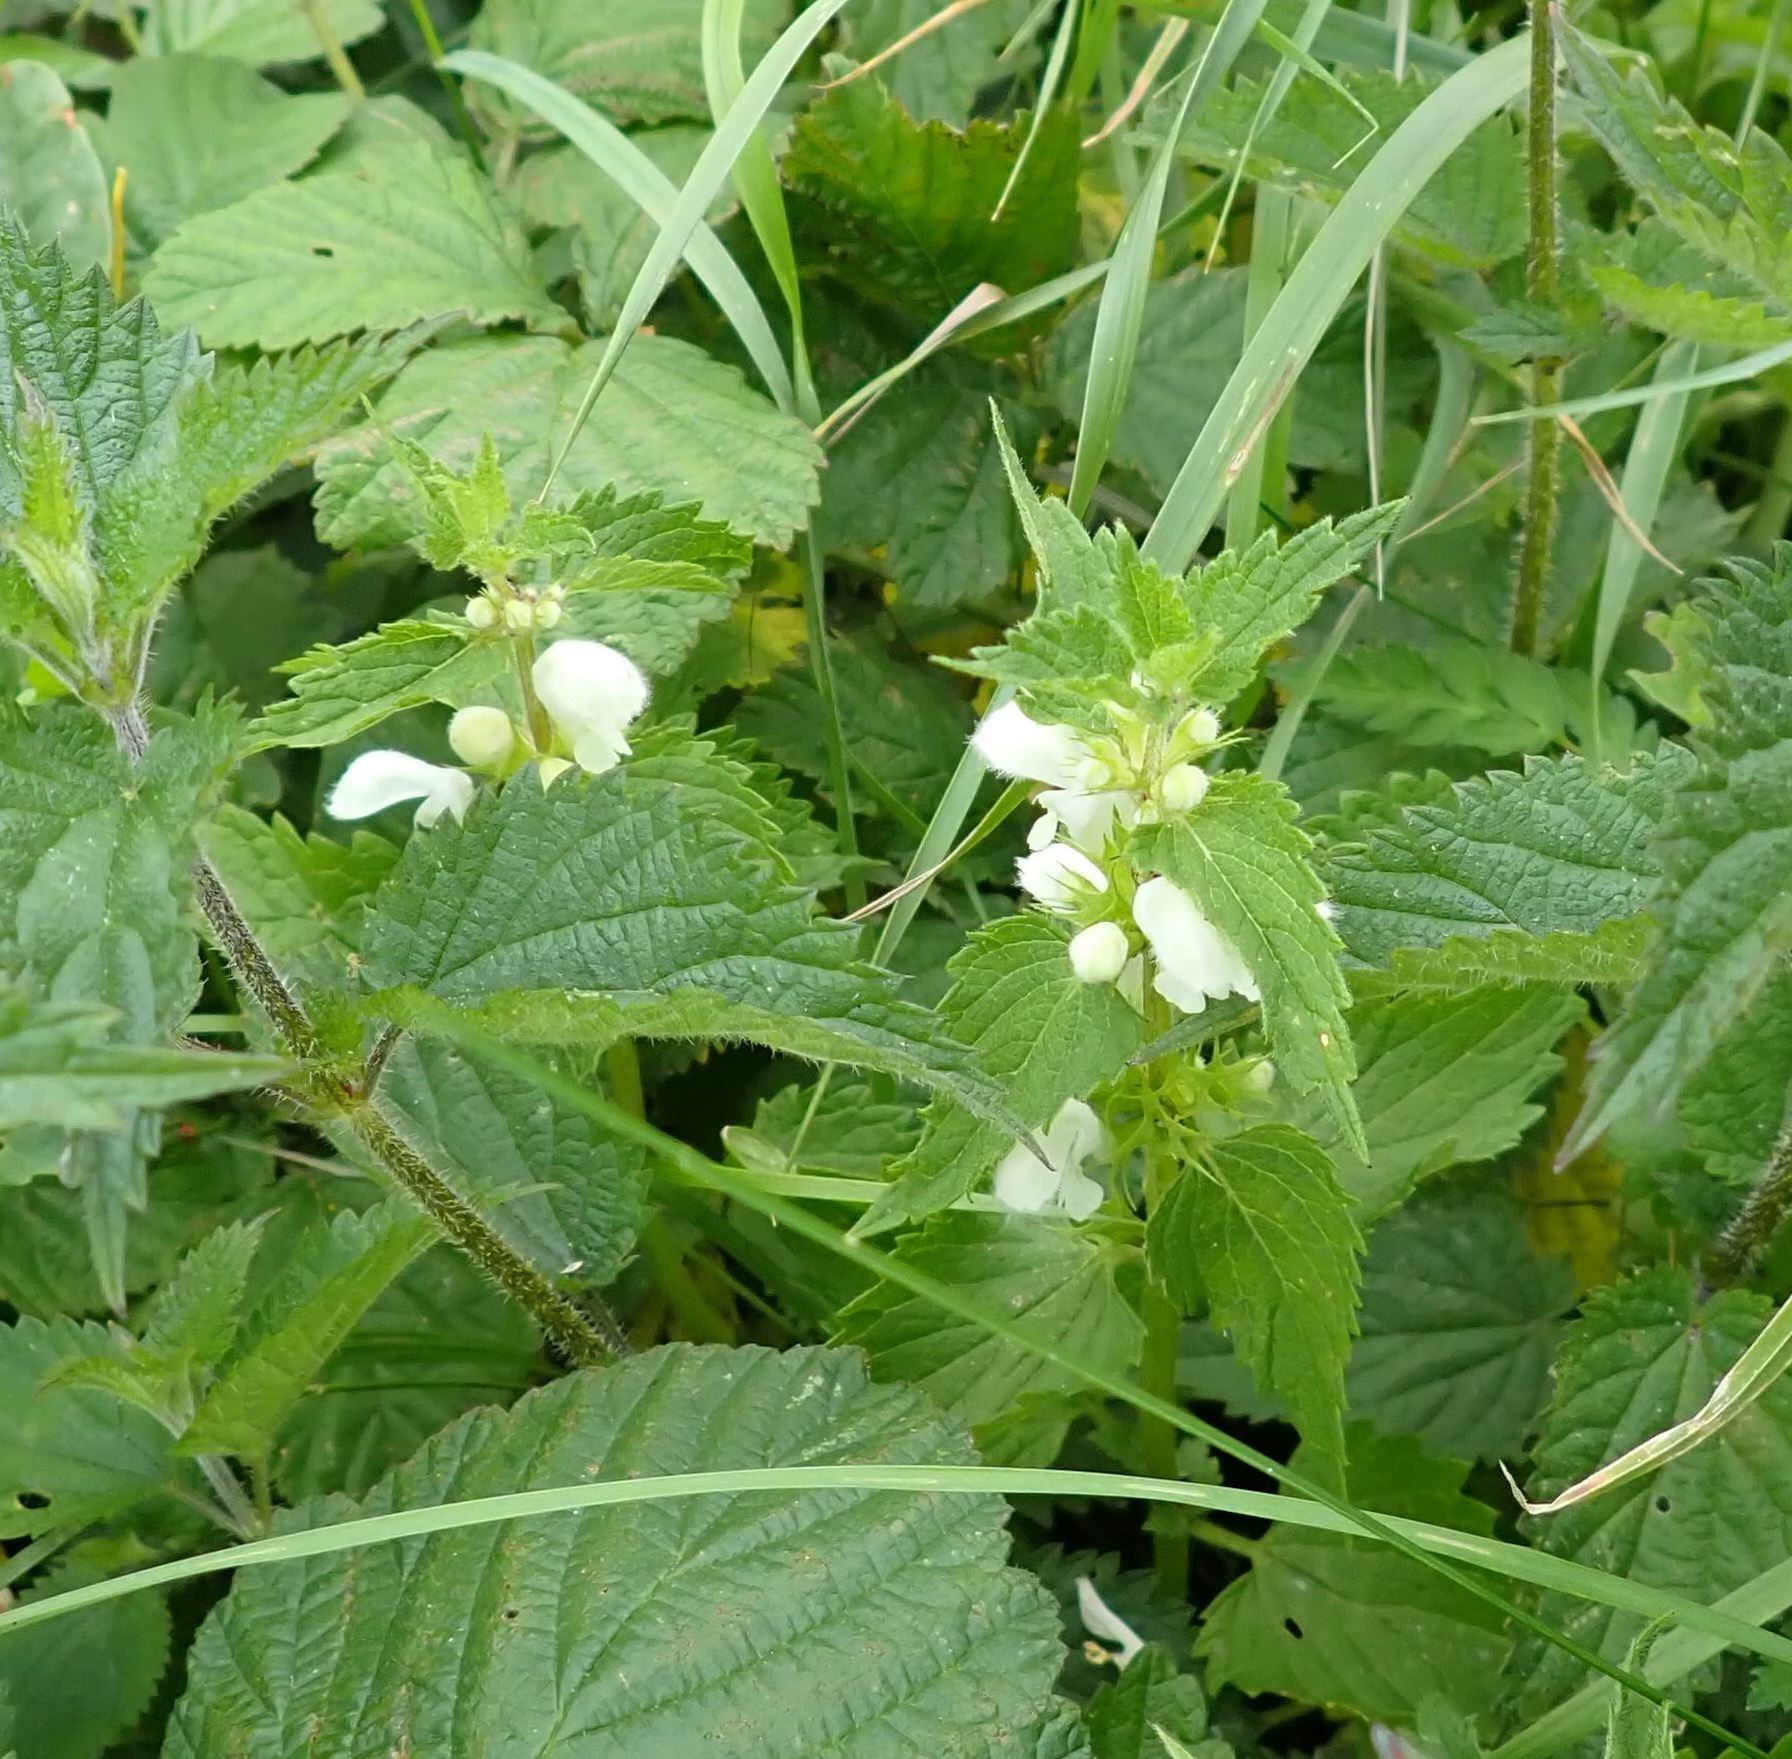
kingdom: Plantae
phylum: Tracheophyta
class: Magnoliopsida
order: Lamiales
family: Lamiaceae
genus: Lamium
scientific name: Lamium album
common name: White dead-nettle
